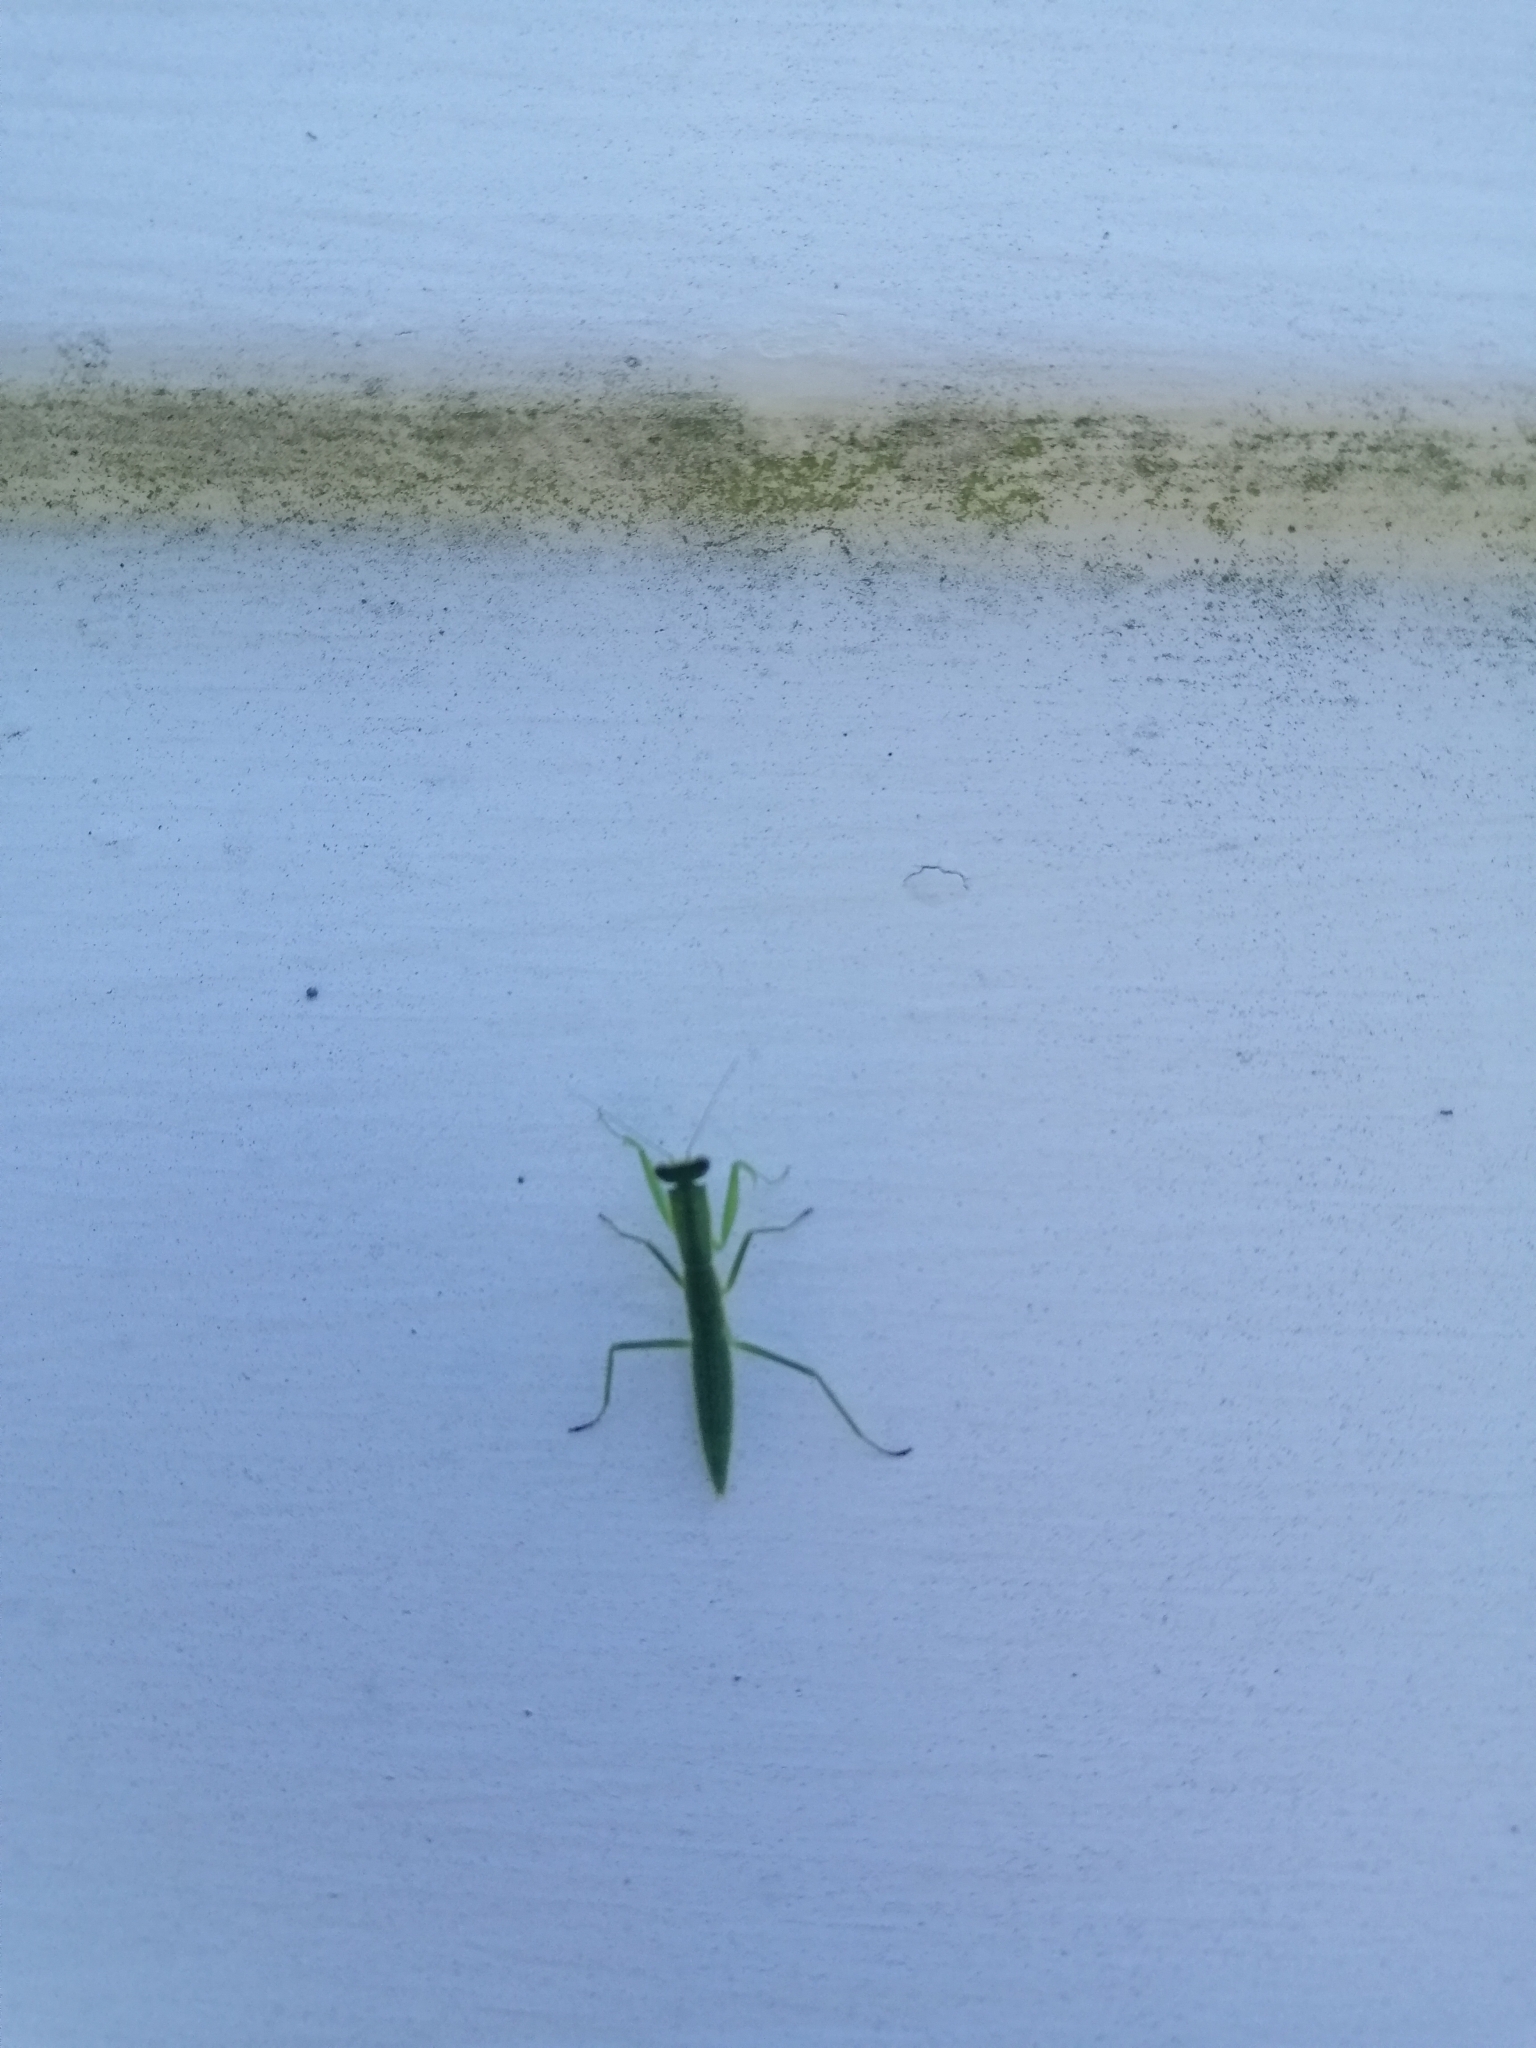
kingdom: Animalia
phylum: Arthropoda
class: Insecta
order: Mantodea
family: Mantidae
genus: Orthodera
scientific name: Orthodera novaezealandiae
